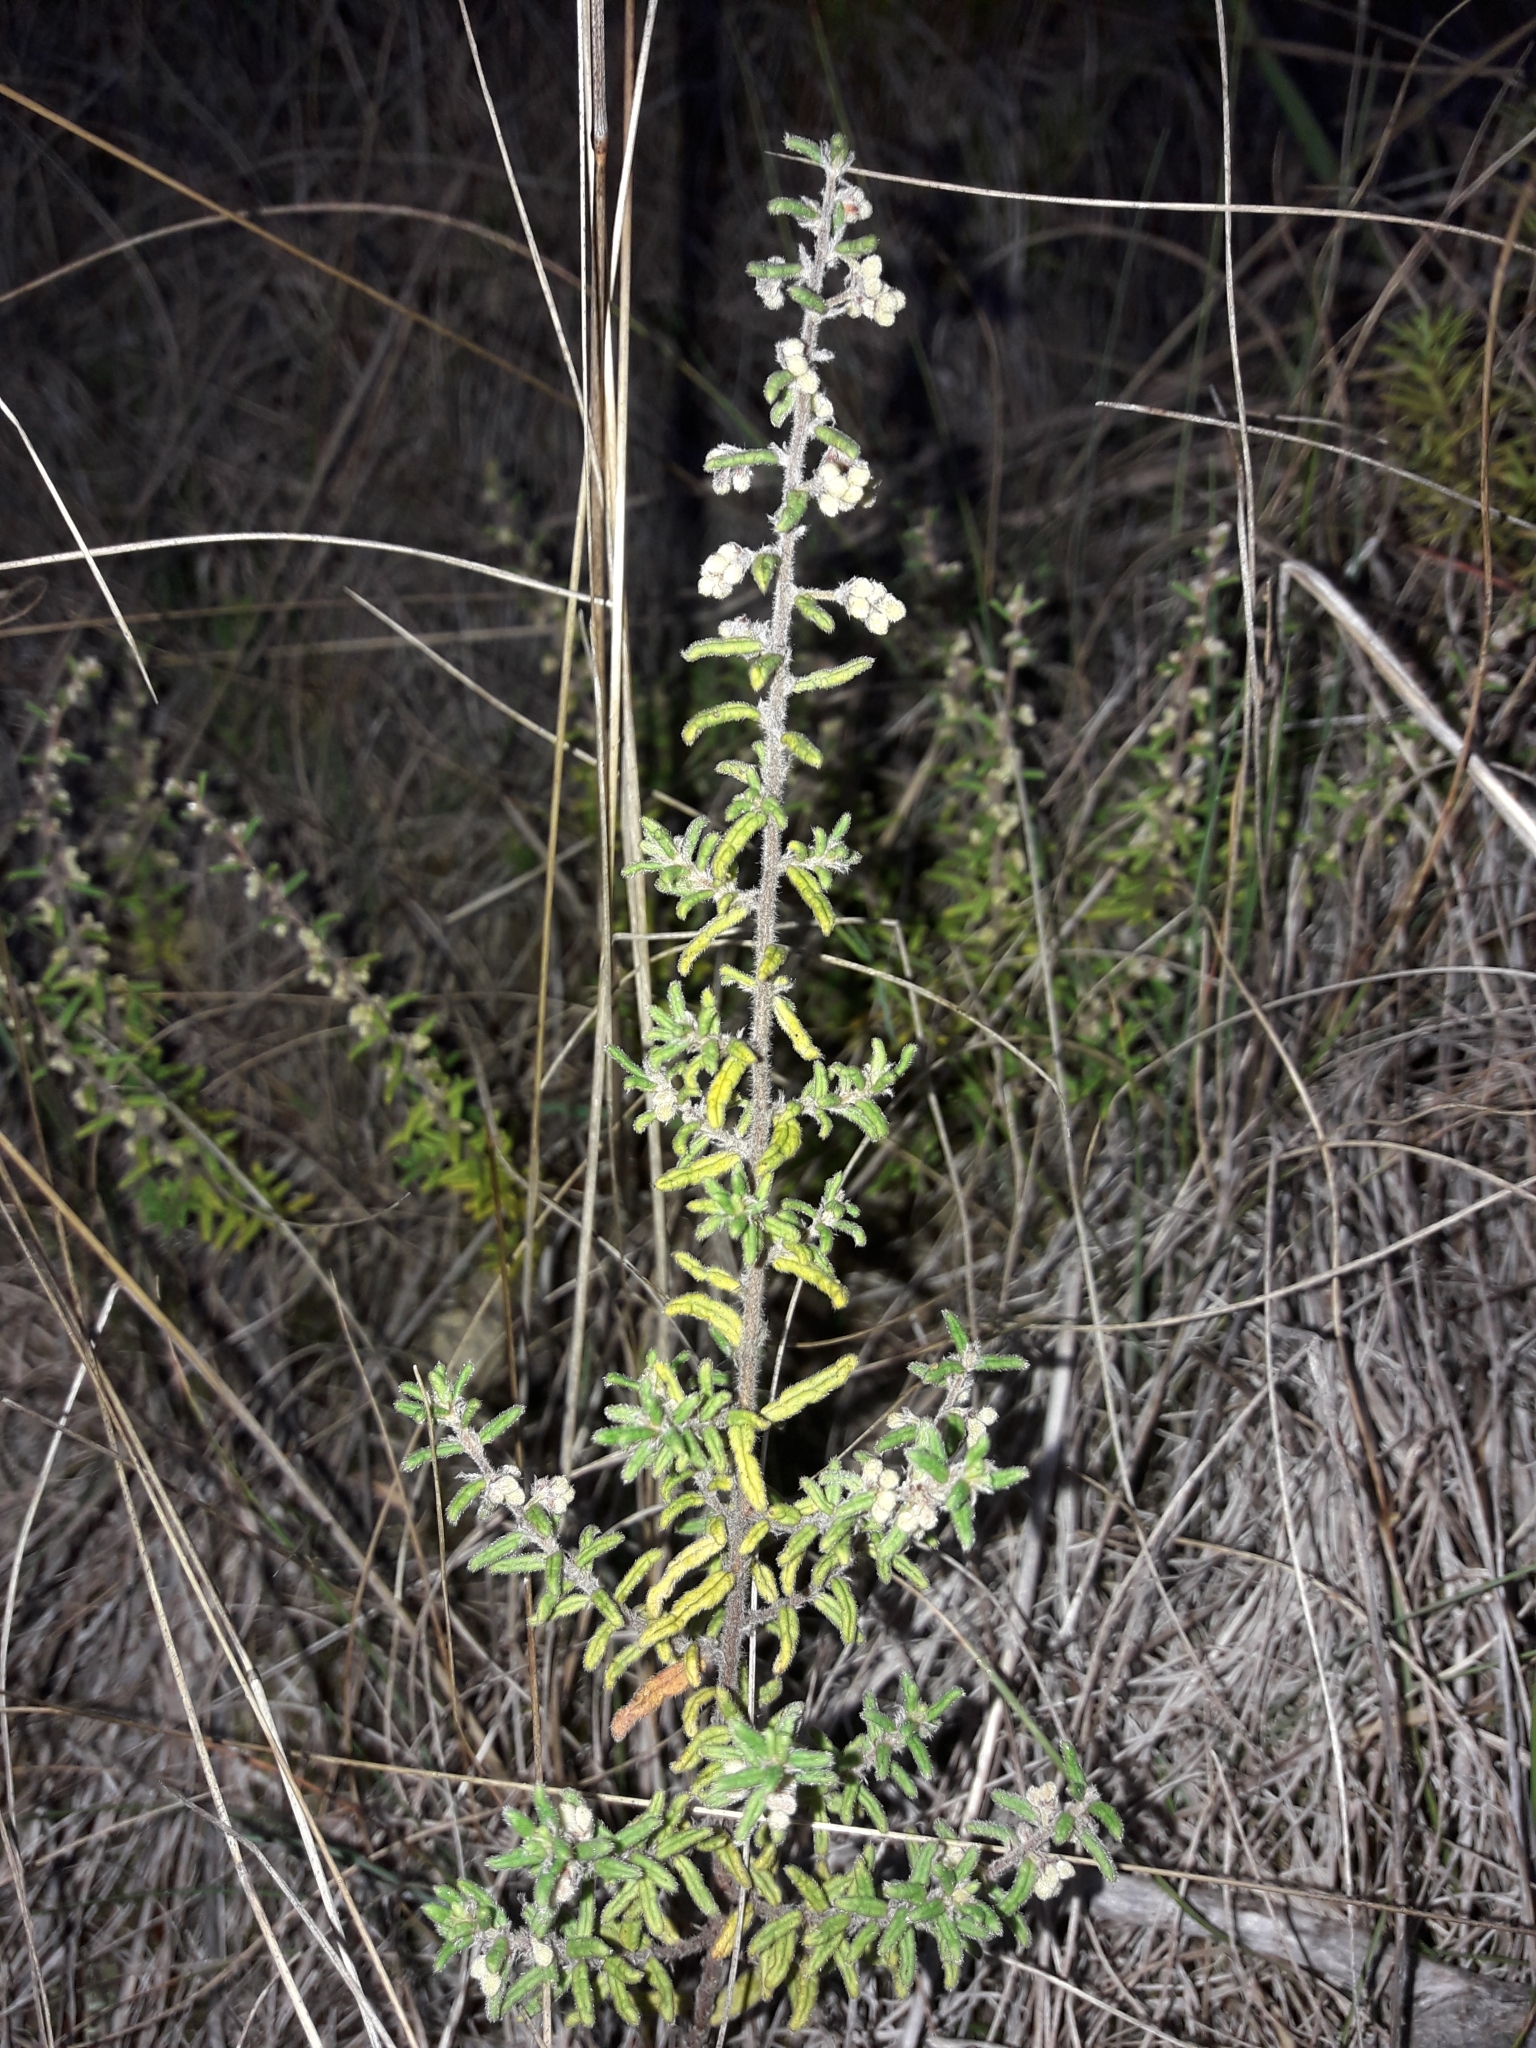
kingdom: Plantae
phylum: Tracheophyta
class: Magnoliopsida
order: Rosales
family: Rhamnaceae
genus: Pomaderris
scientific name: Pomaderris amoena
